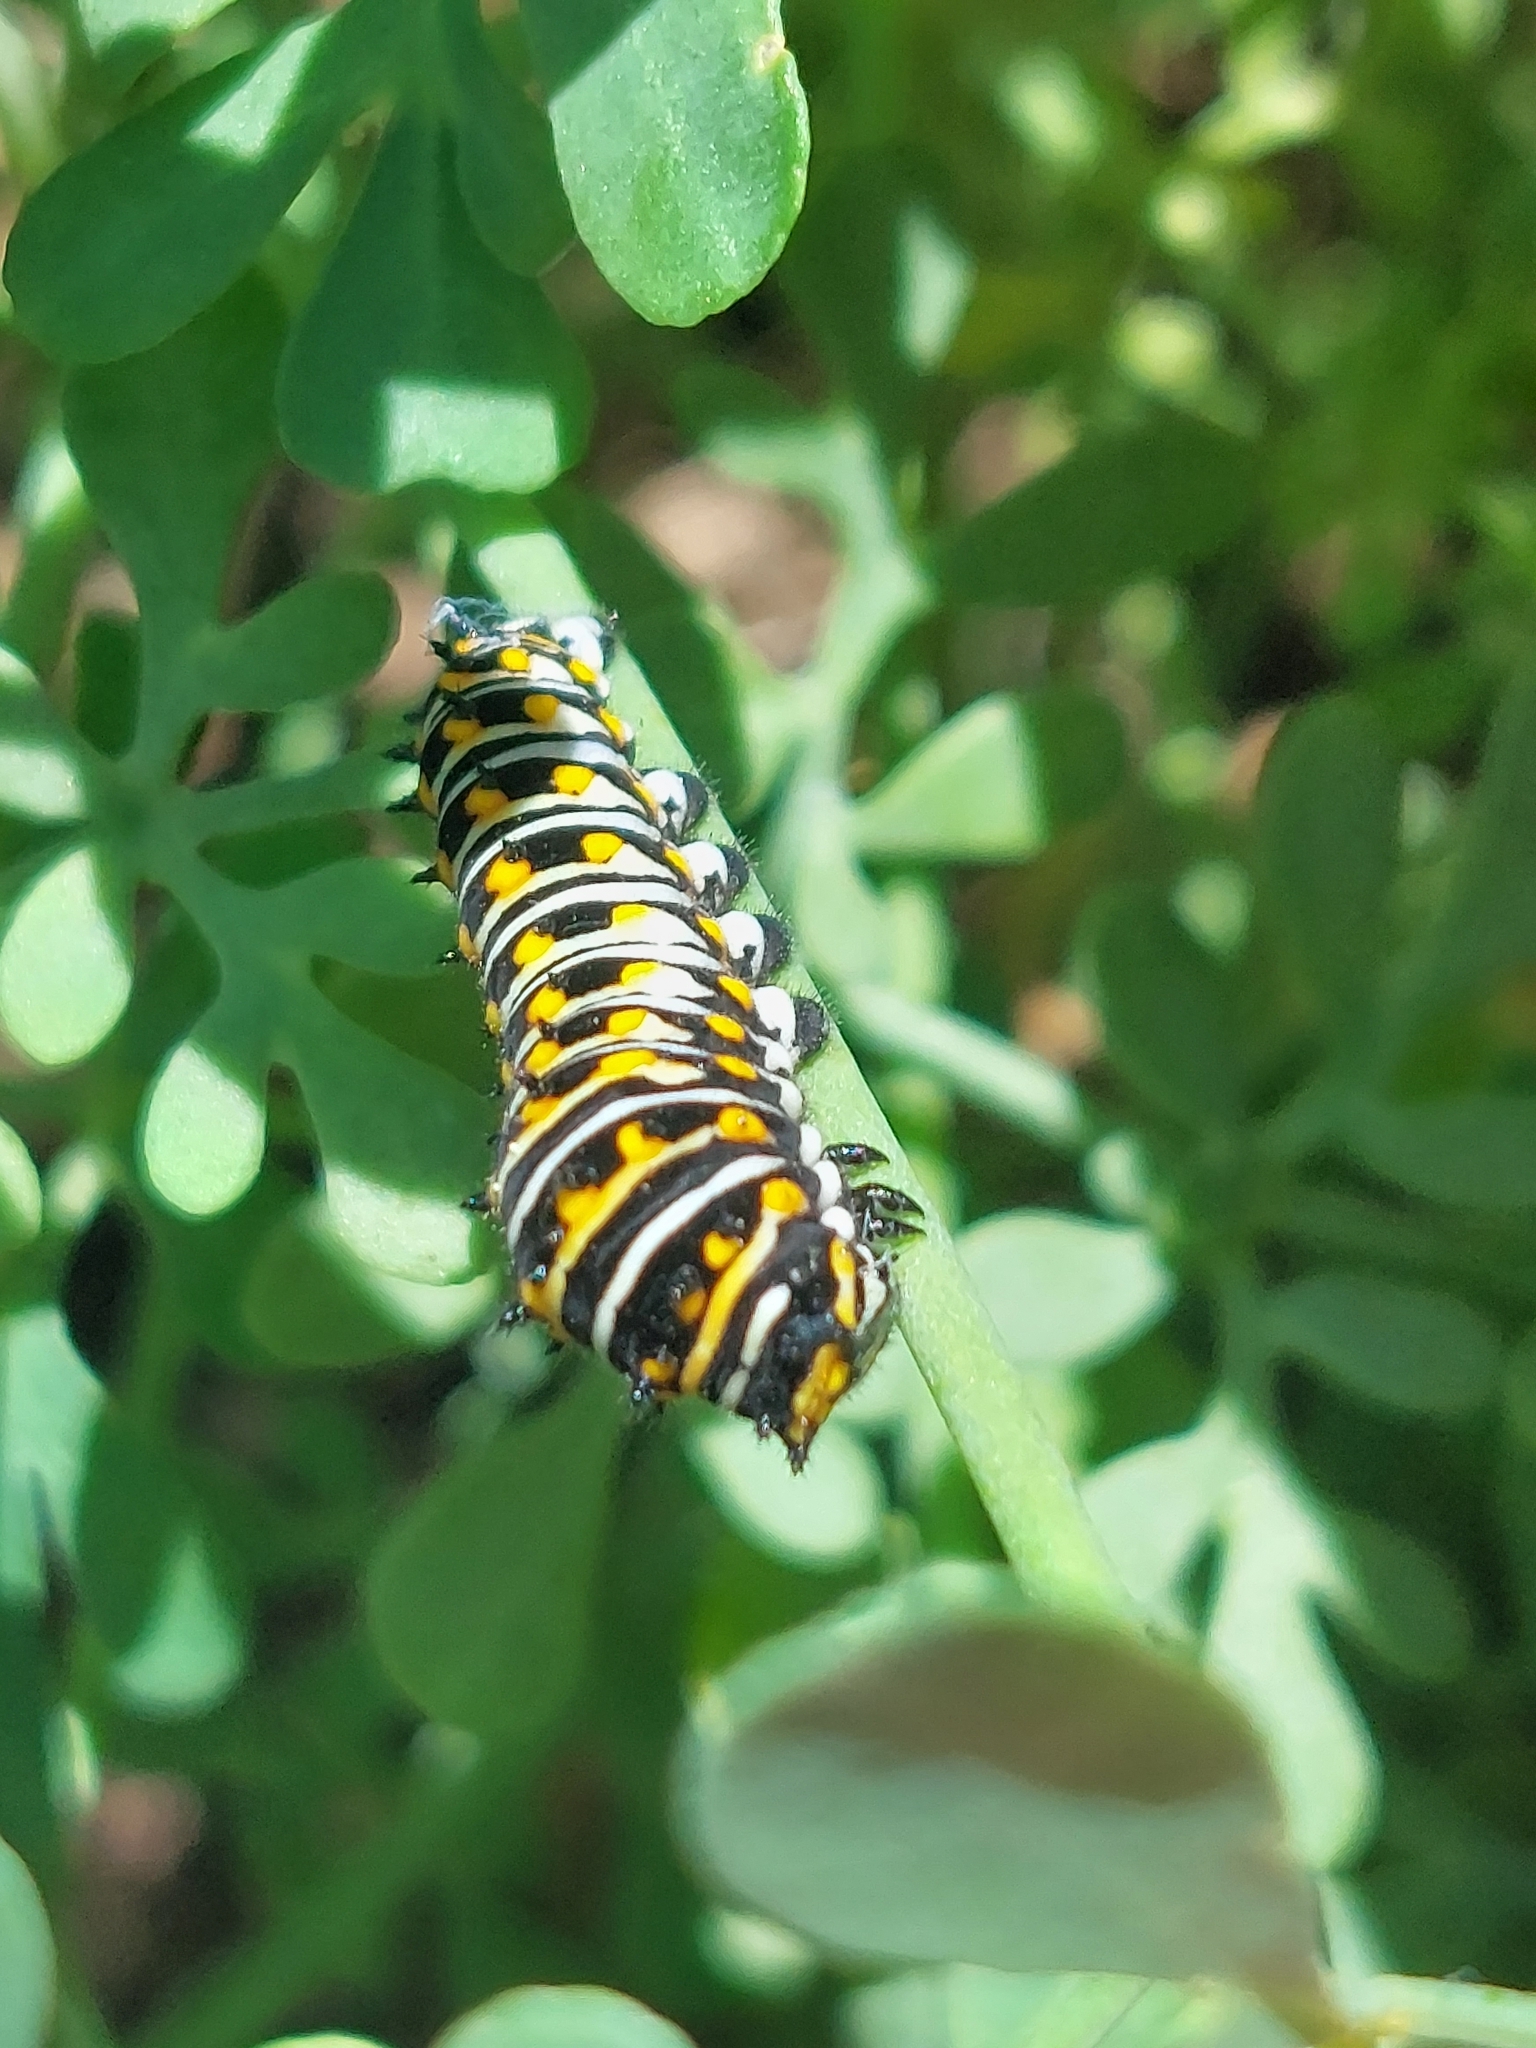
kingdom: Animalia
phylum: Arthropoda
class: Insecta
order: Lepidoptera
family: Papilionidae
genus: Papilio
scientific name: Papilio polyxenes
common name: Black swallowtail
